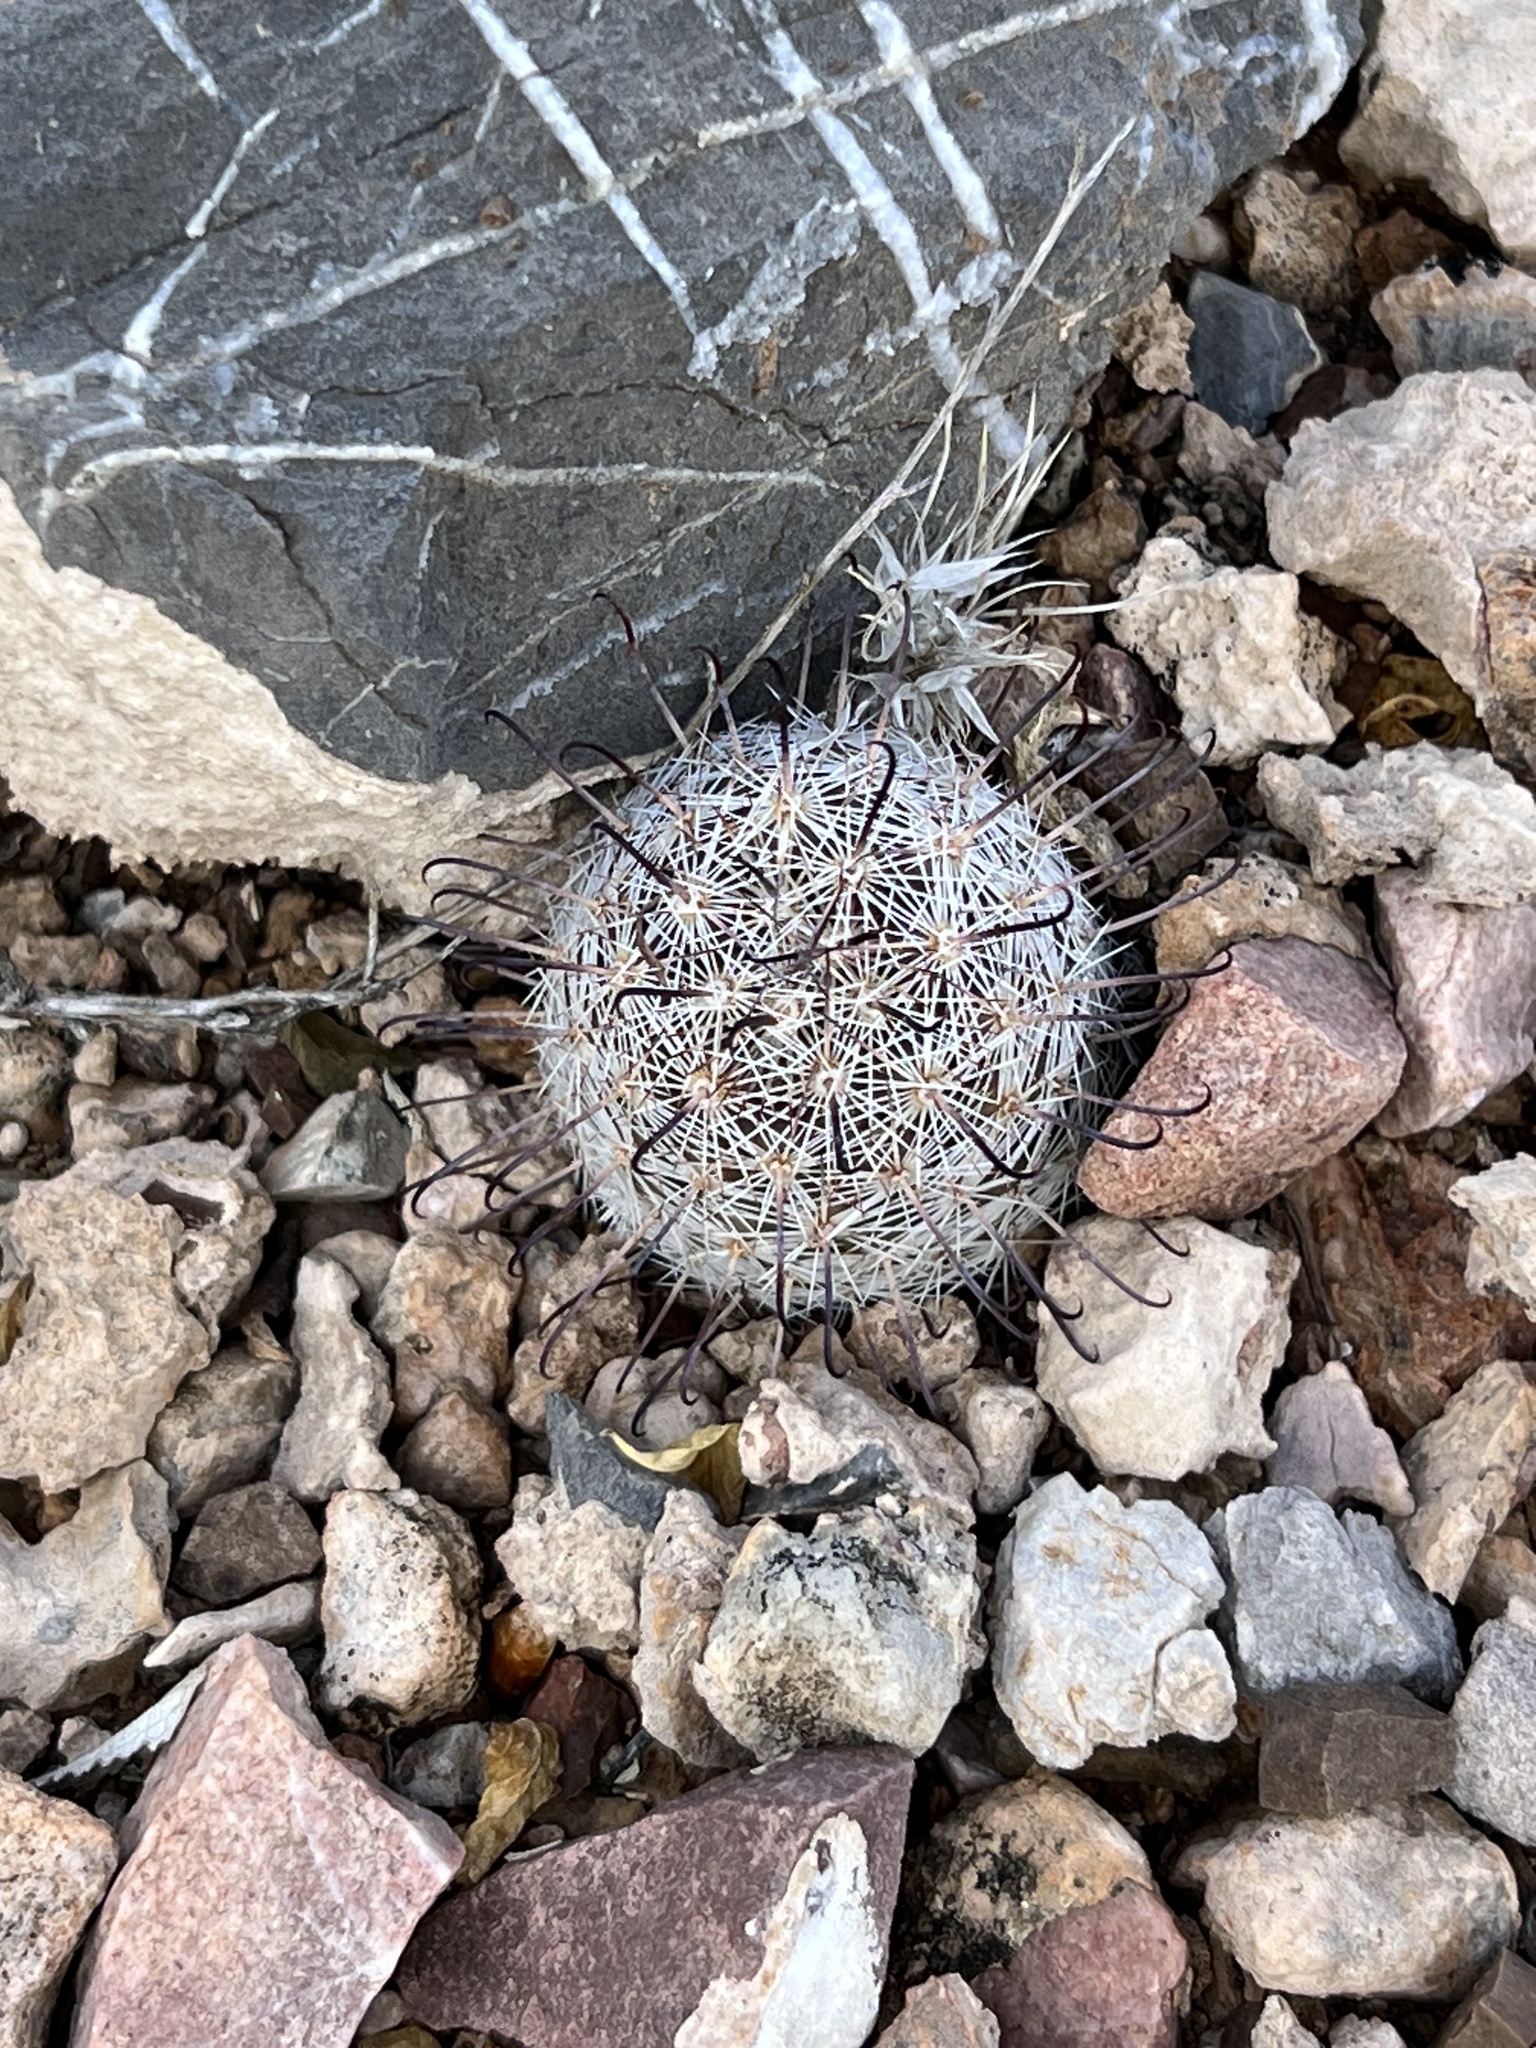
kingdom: Plantae
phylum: Tracheophyta
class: Magnoliopsida
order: Caryophyllales
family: Cactaceae
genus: Cochemiea
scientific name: Cochemiea grahamii
